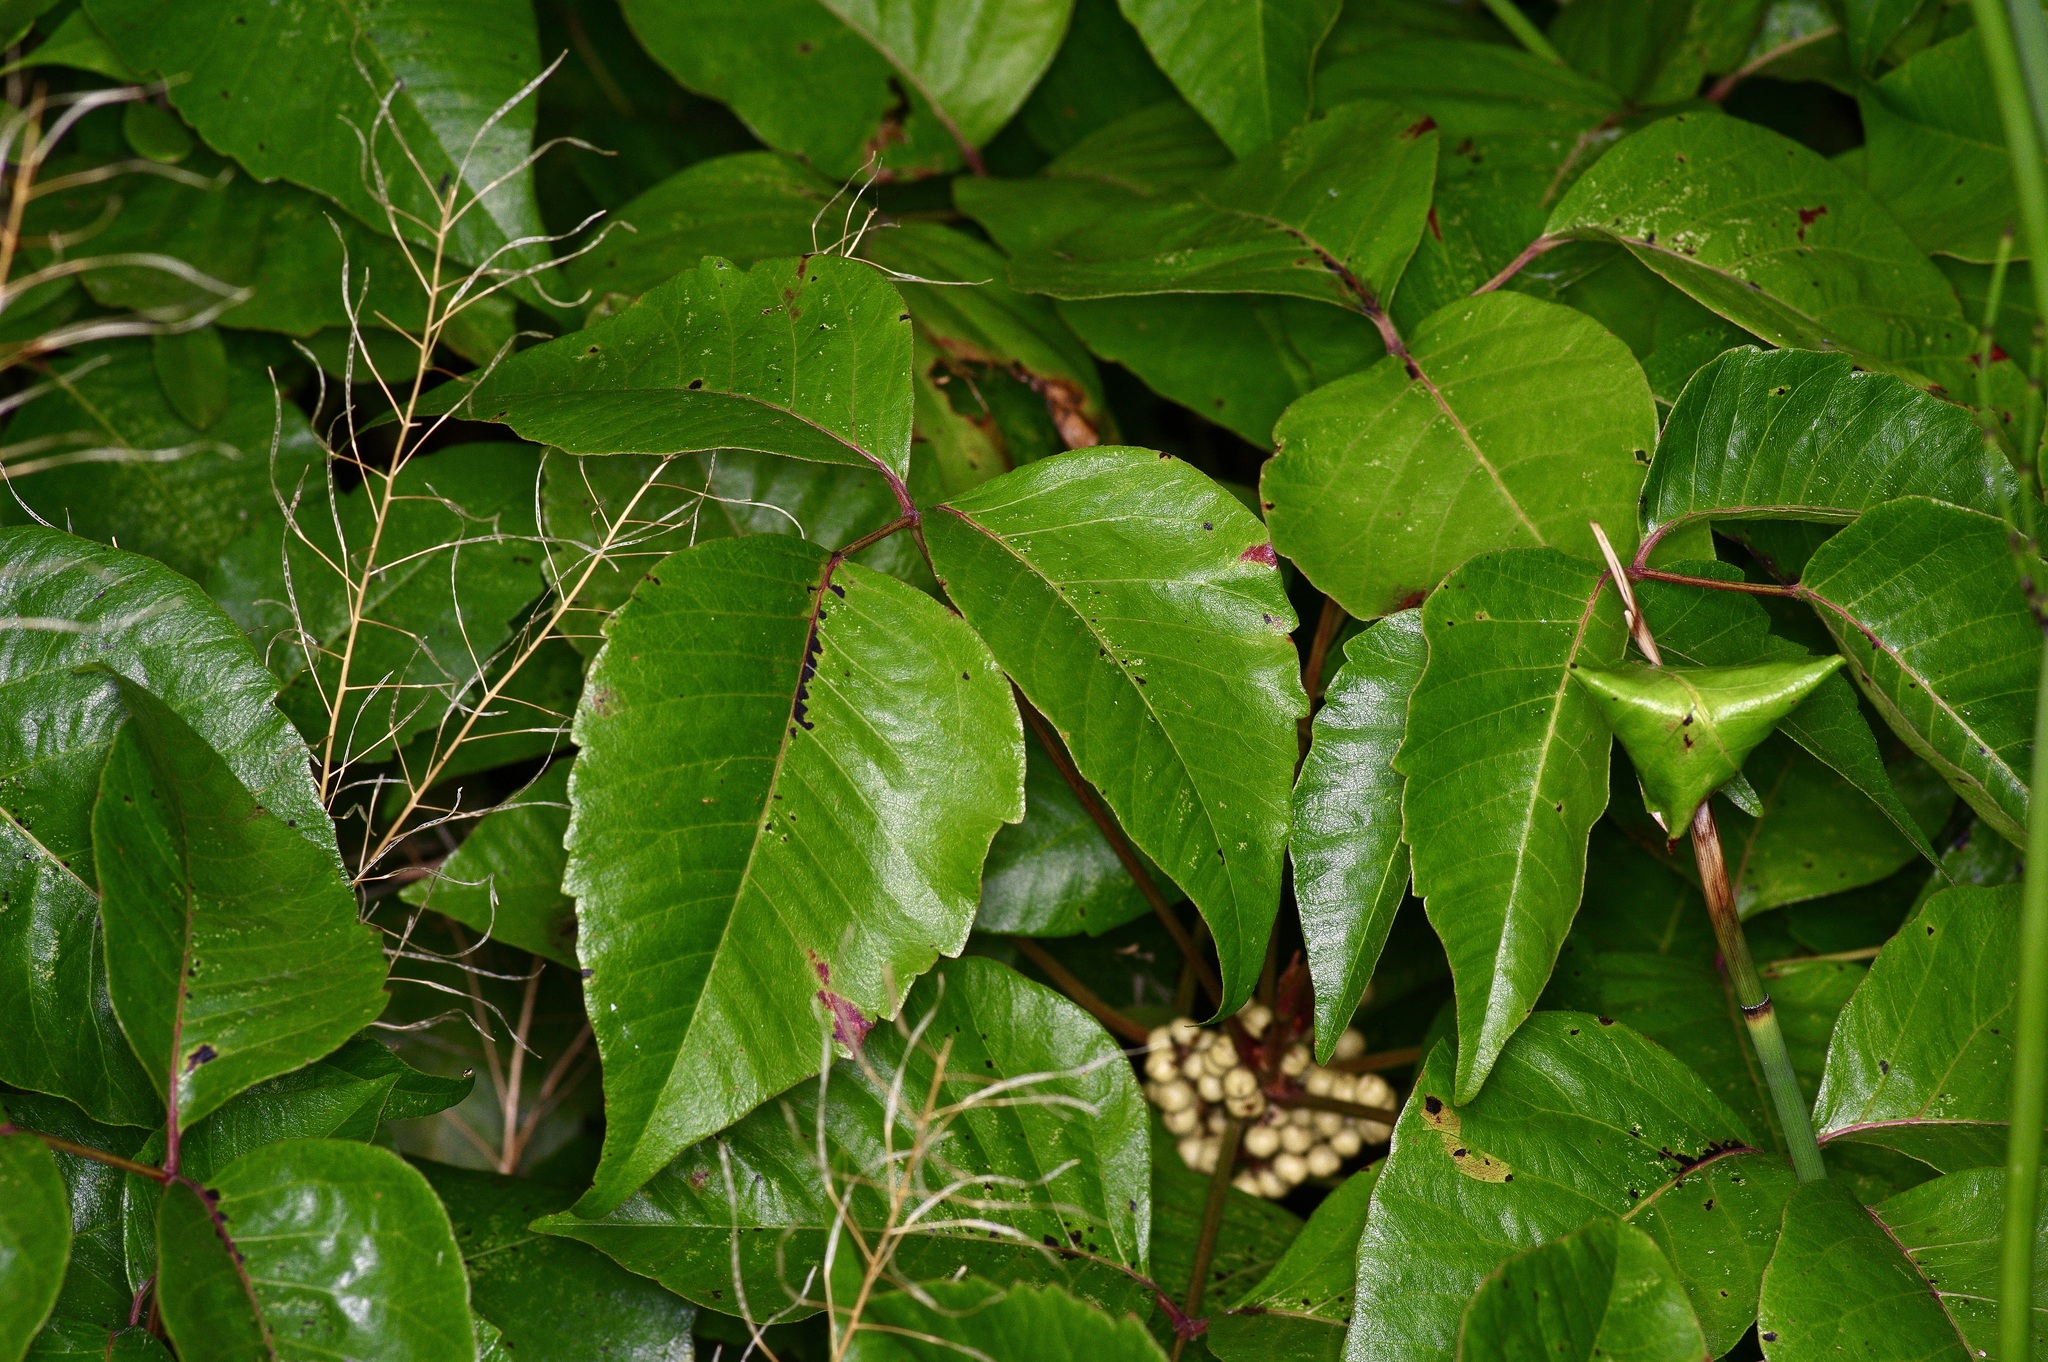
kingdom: Plantae
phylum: Tracheophyta
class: Magnoliopsida
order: Sapindales
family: Anacardiaceae
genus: Toxicodendron
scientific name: Toxicodendron rydbergii
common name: Rydberg's poison-ivy
